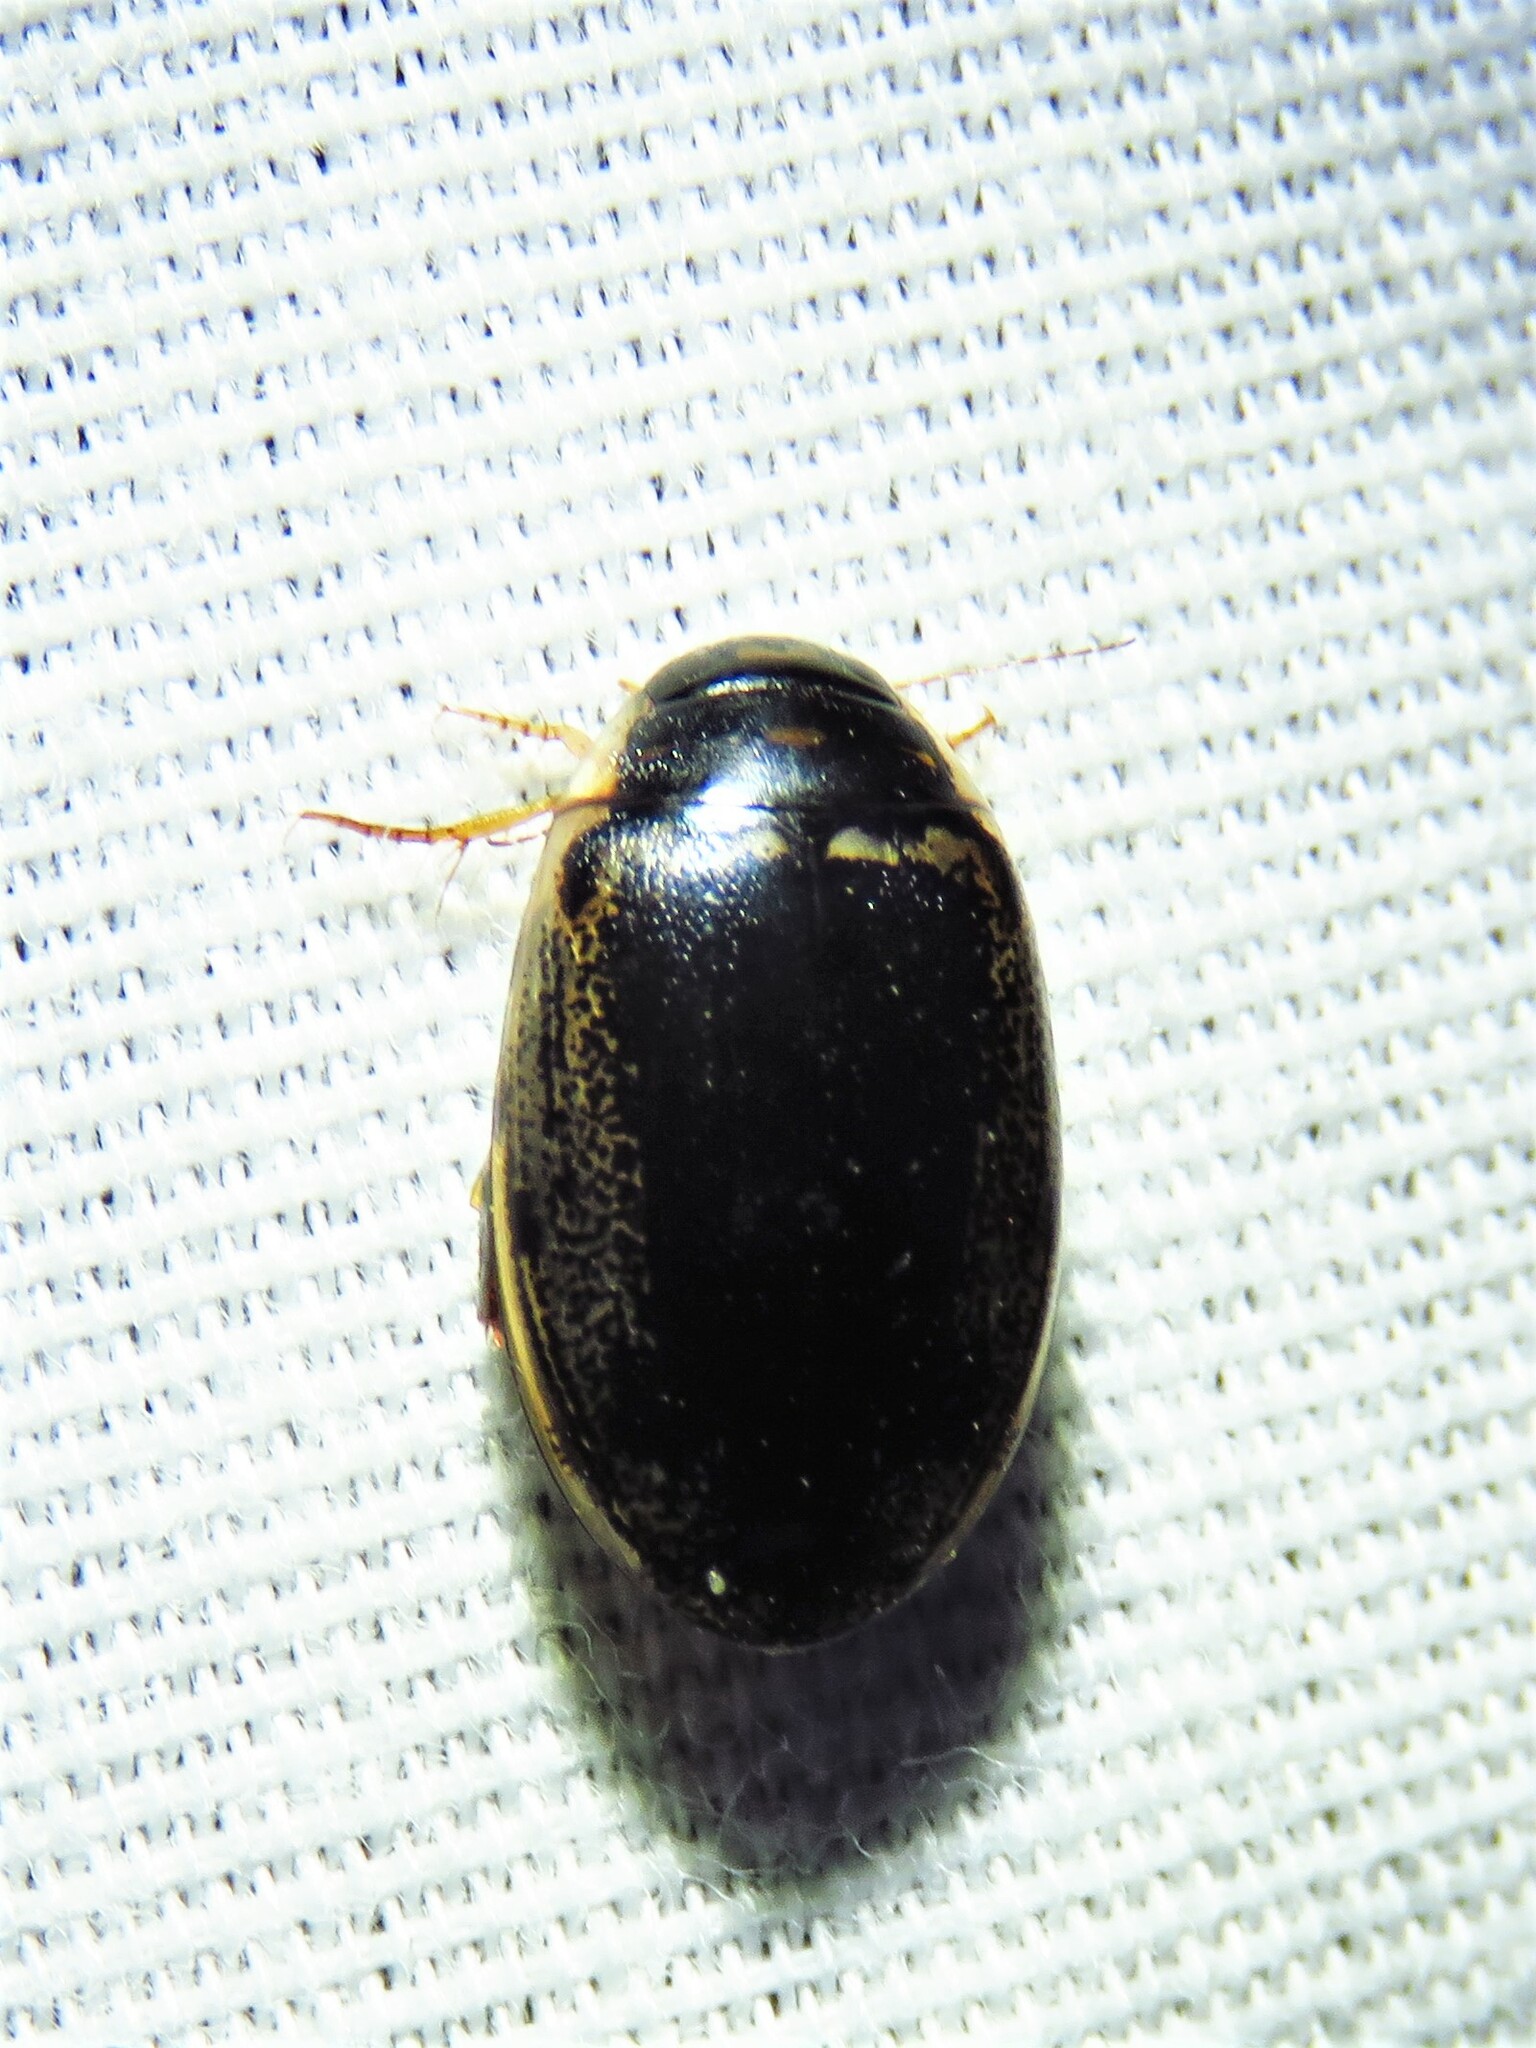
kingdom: Animalia
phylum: Arthropoda
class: Insecta
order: Coleoptera
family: Dytiscidae
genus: Thermonectus
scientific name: Thermonectus basillaris
